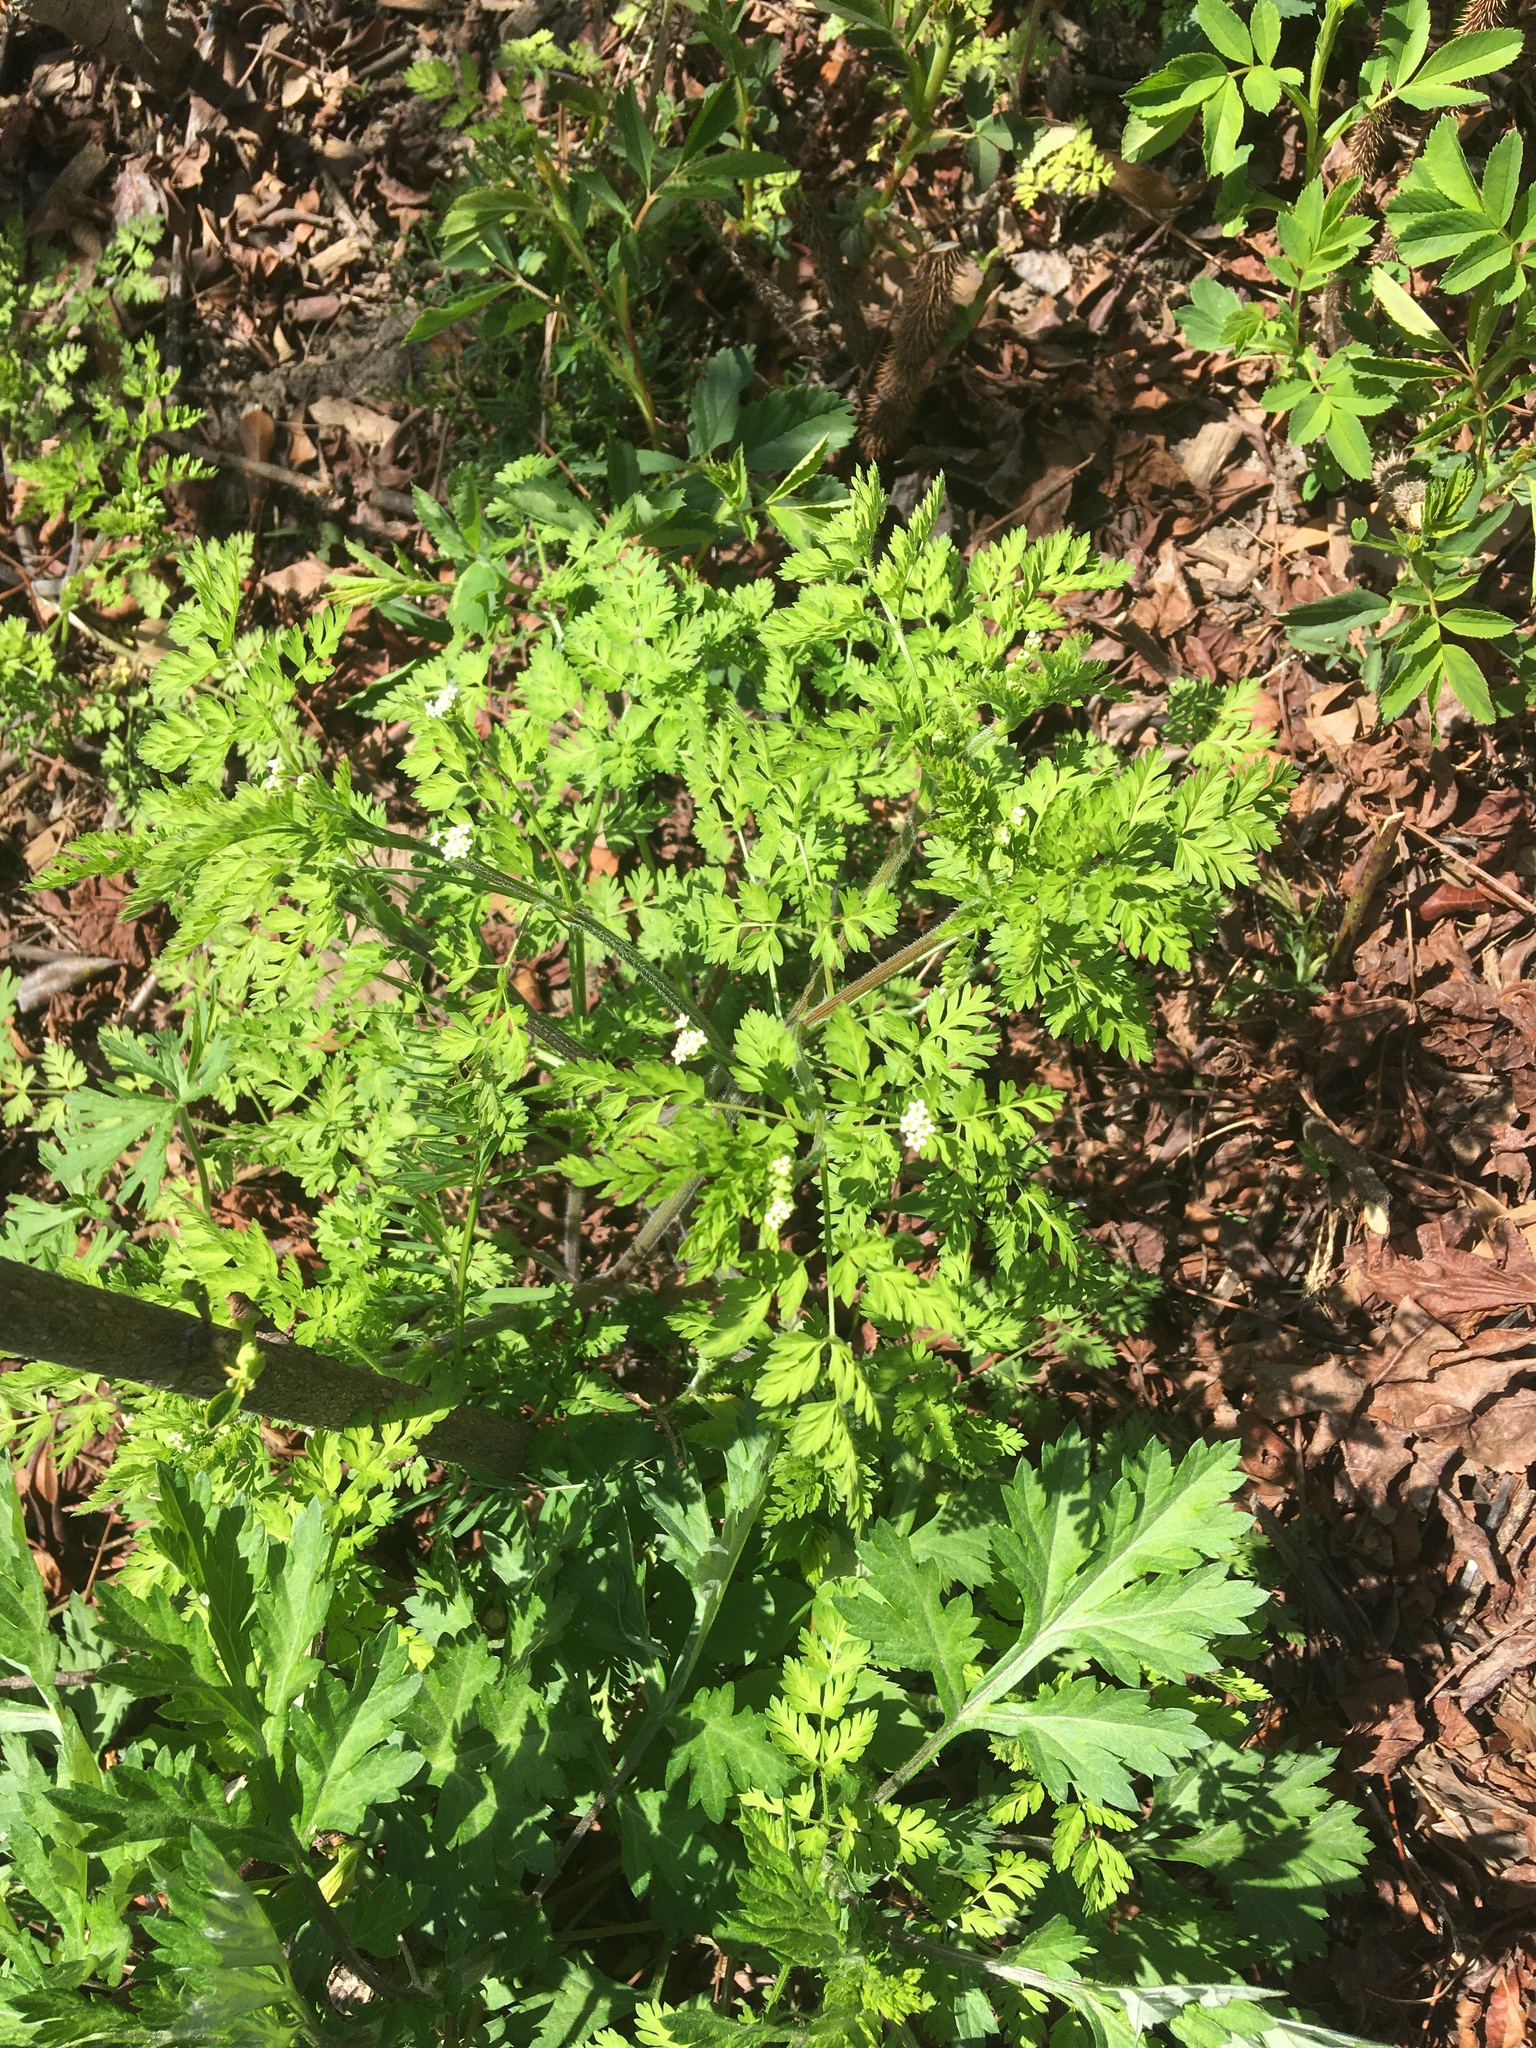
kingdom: Plantae
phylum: Tracheophyta
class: Magnoliopsida
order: Apiales
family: Apiaceae
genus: Chaerophyllum
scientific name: Chaerophyllum tainturieri
